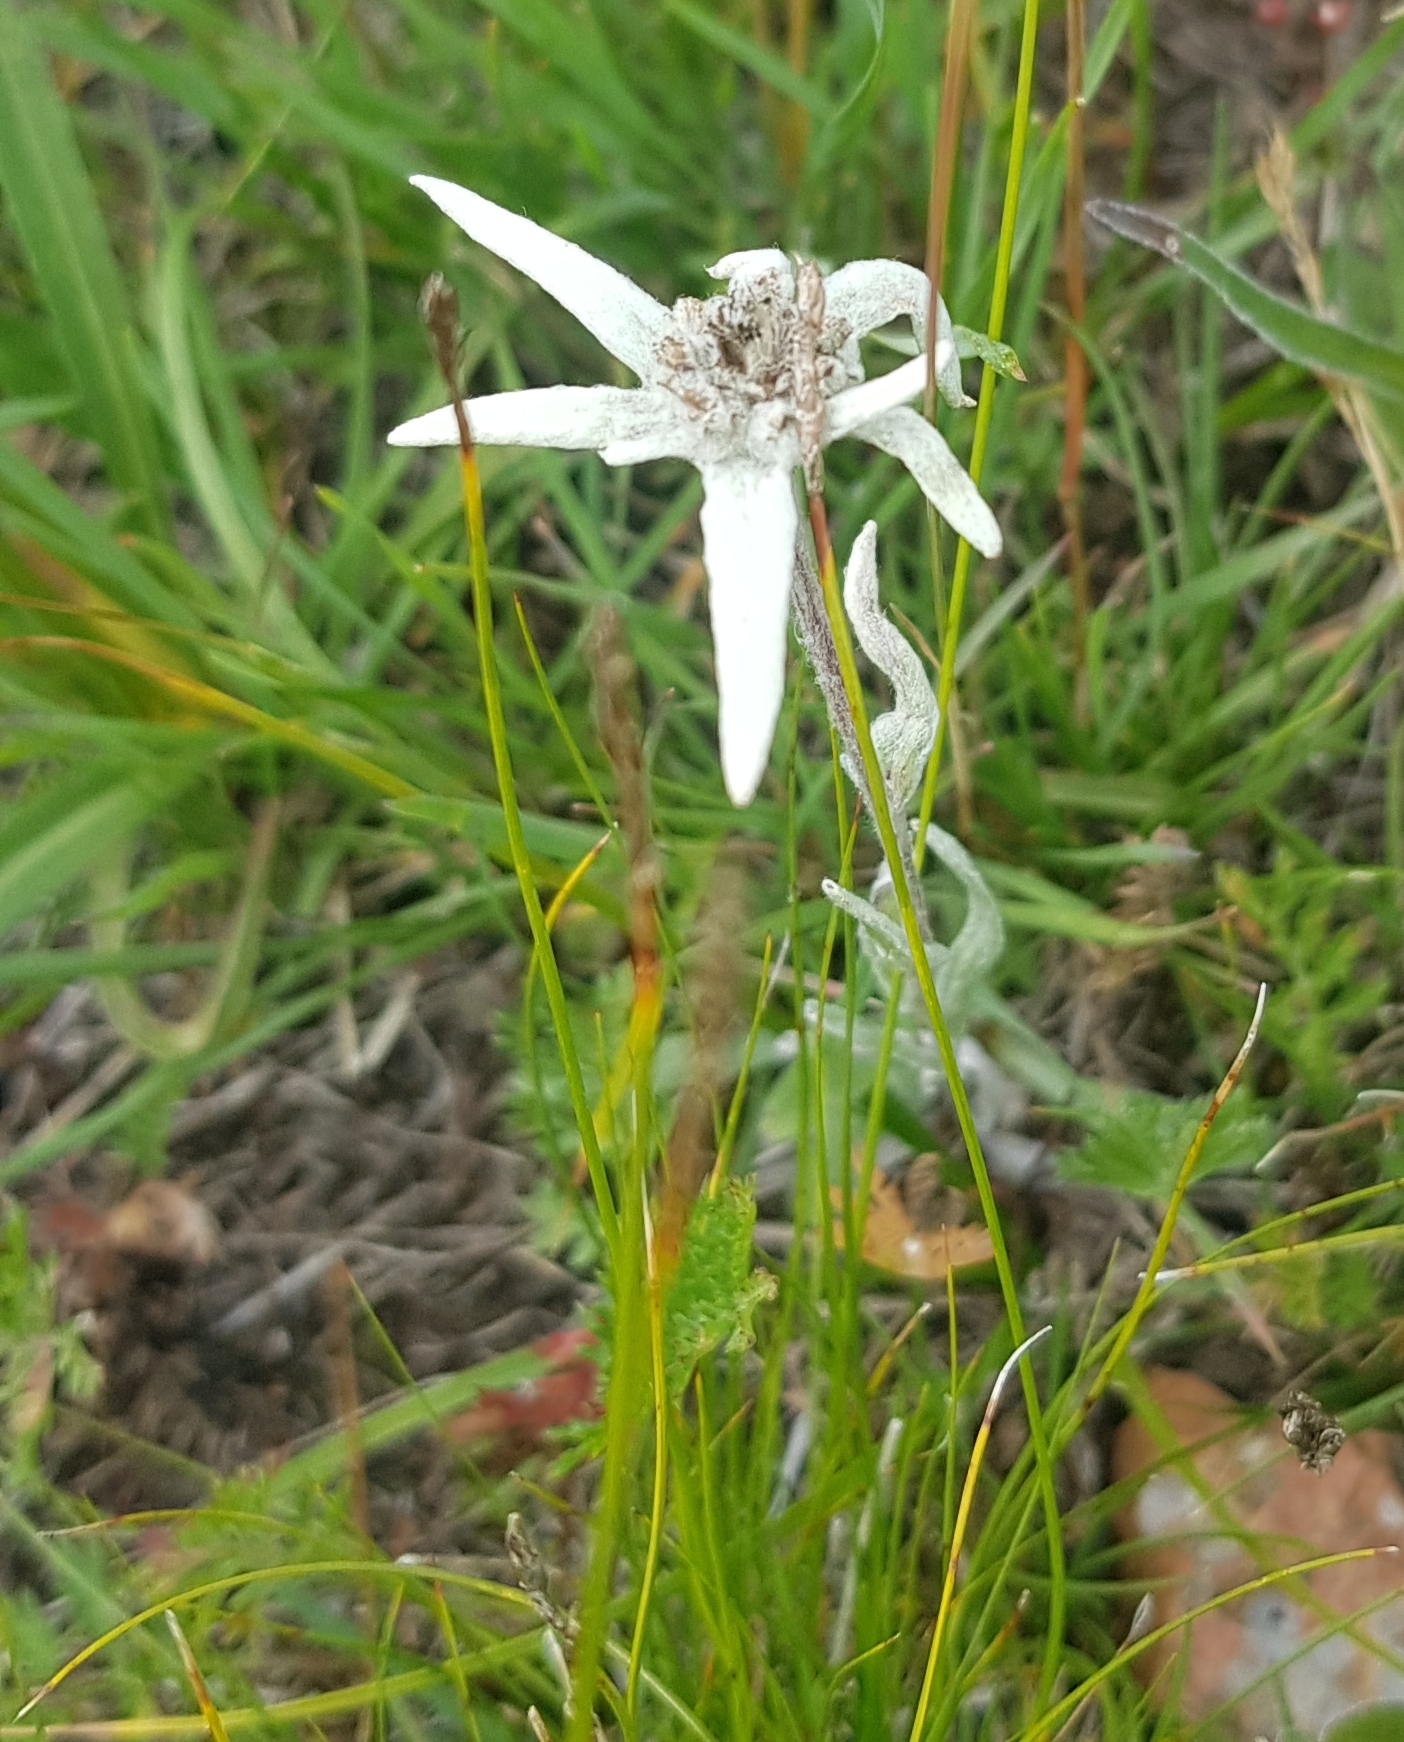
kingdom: Plantae
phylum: Tracheophyta
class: Magnoliopsida
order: Asterales
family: Asteraceae
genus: Leontopodium
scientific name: Leontopodium leontopodinum
